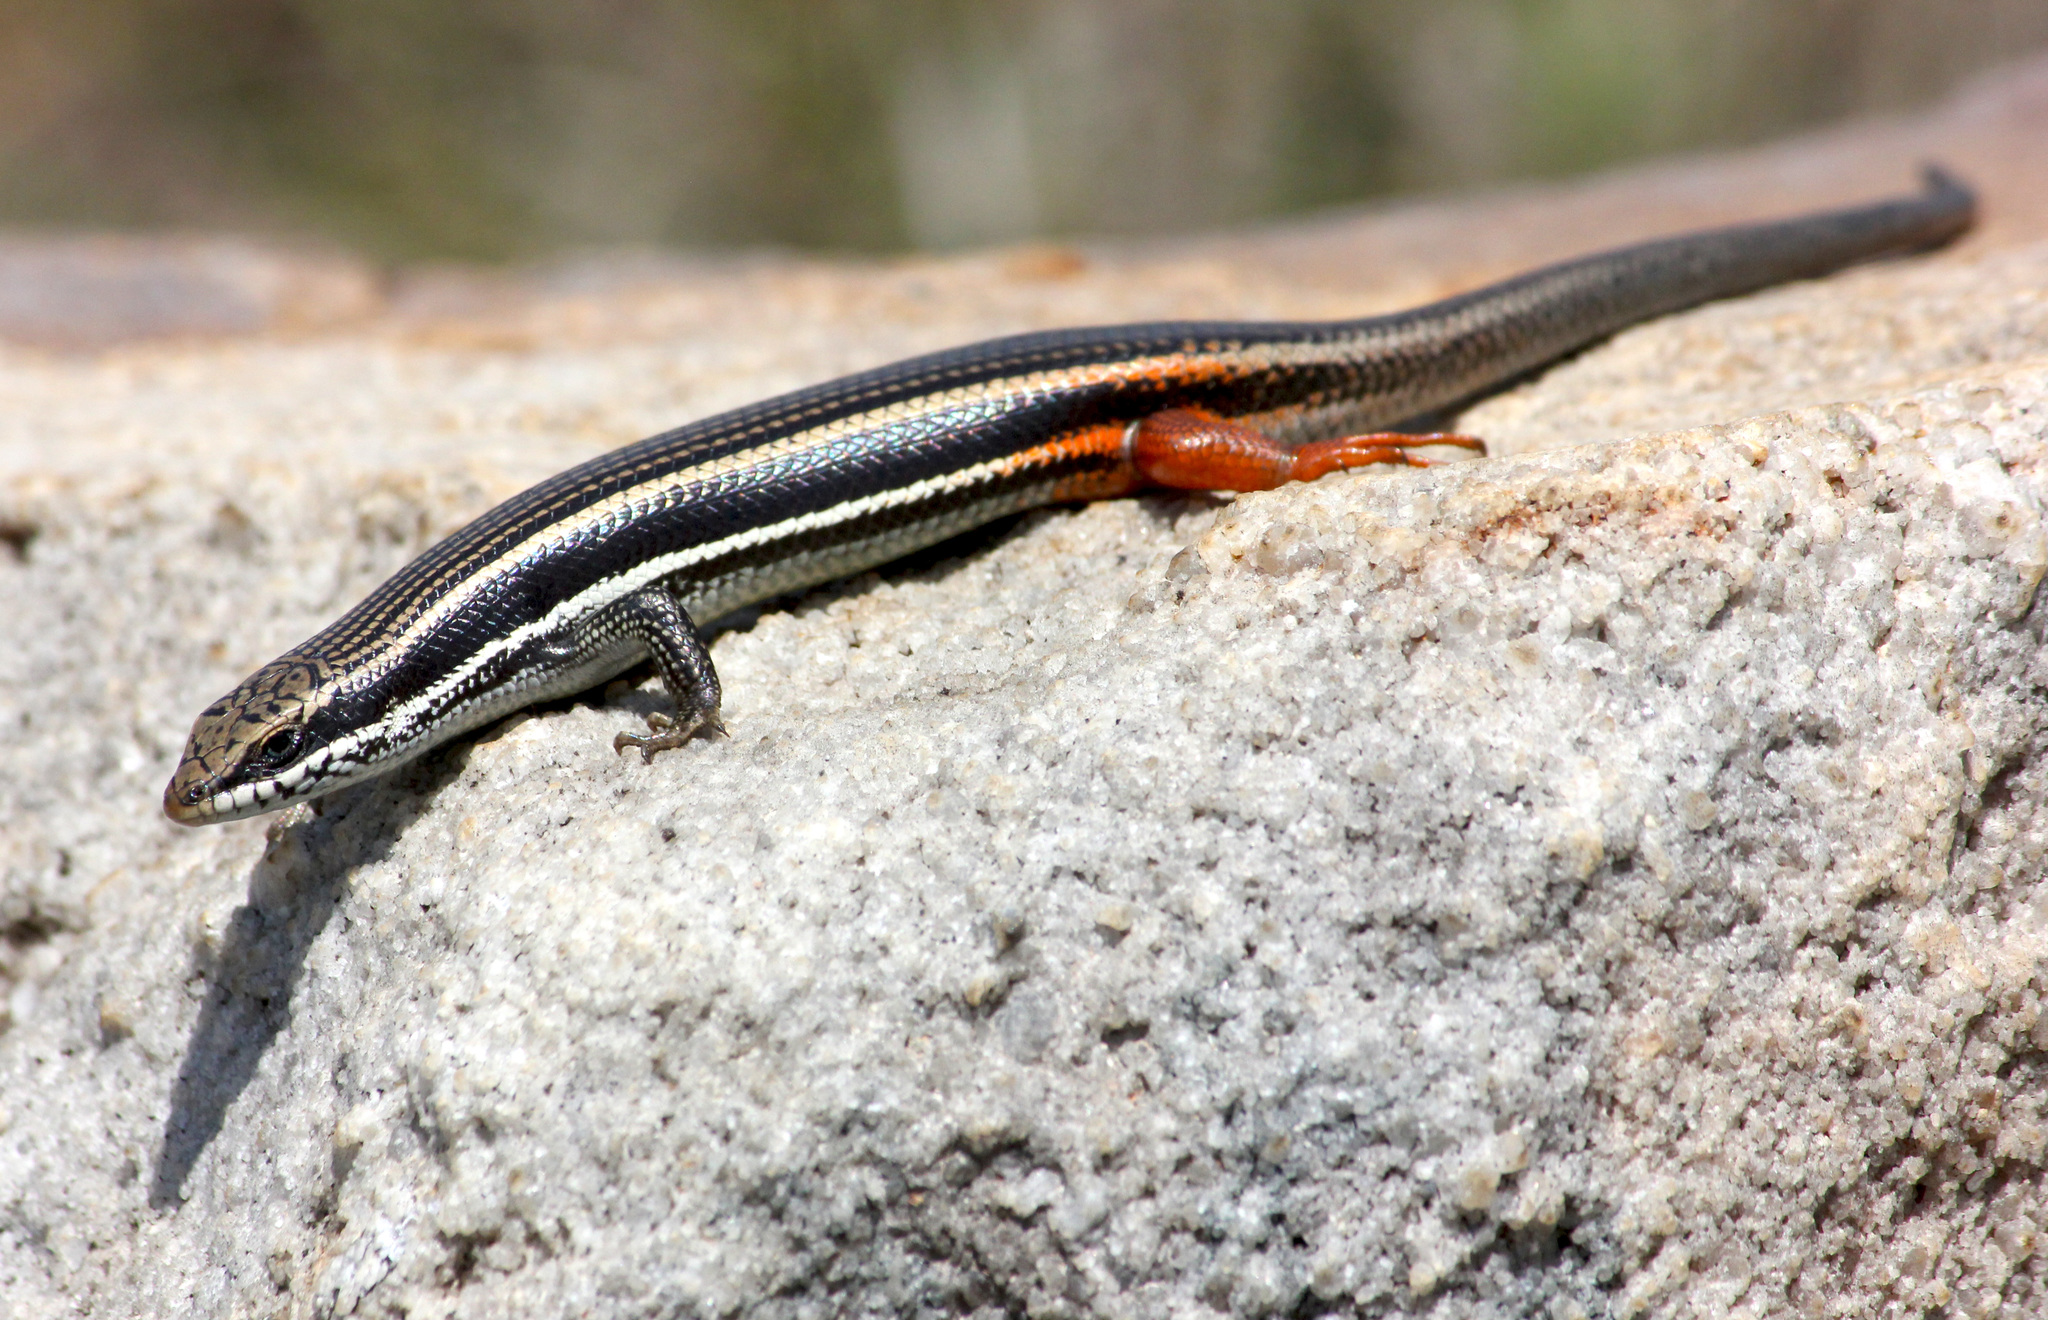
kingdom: Animalia
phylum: Chordata
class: Squamata
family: Scincidae
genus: Trachylepis
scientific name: Trachylepis homalocephala
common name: Red-sided skink
